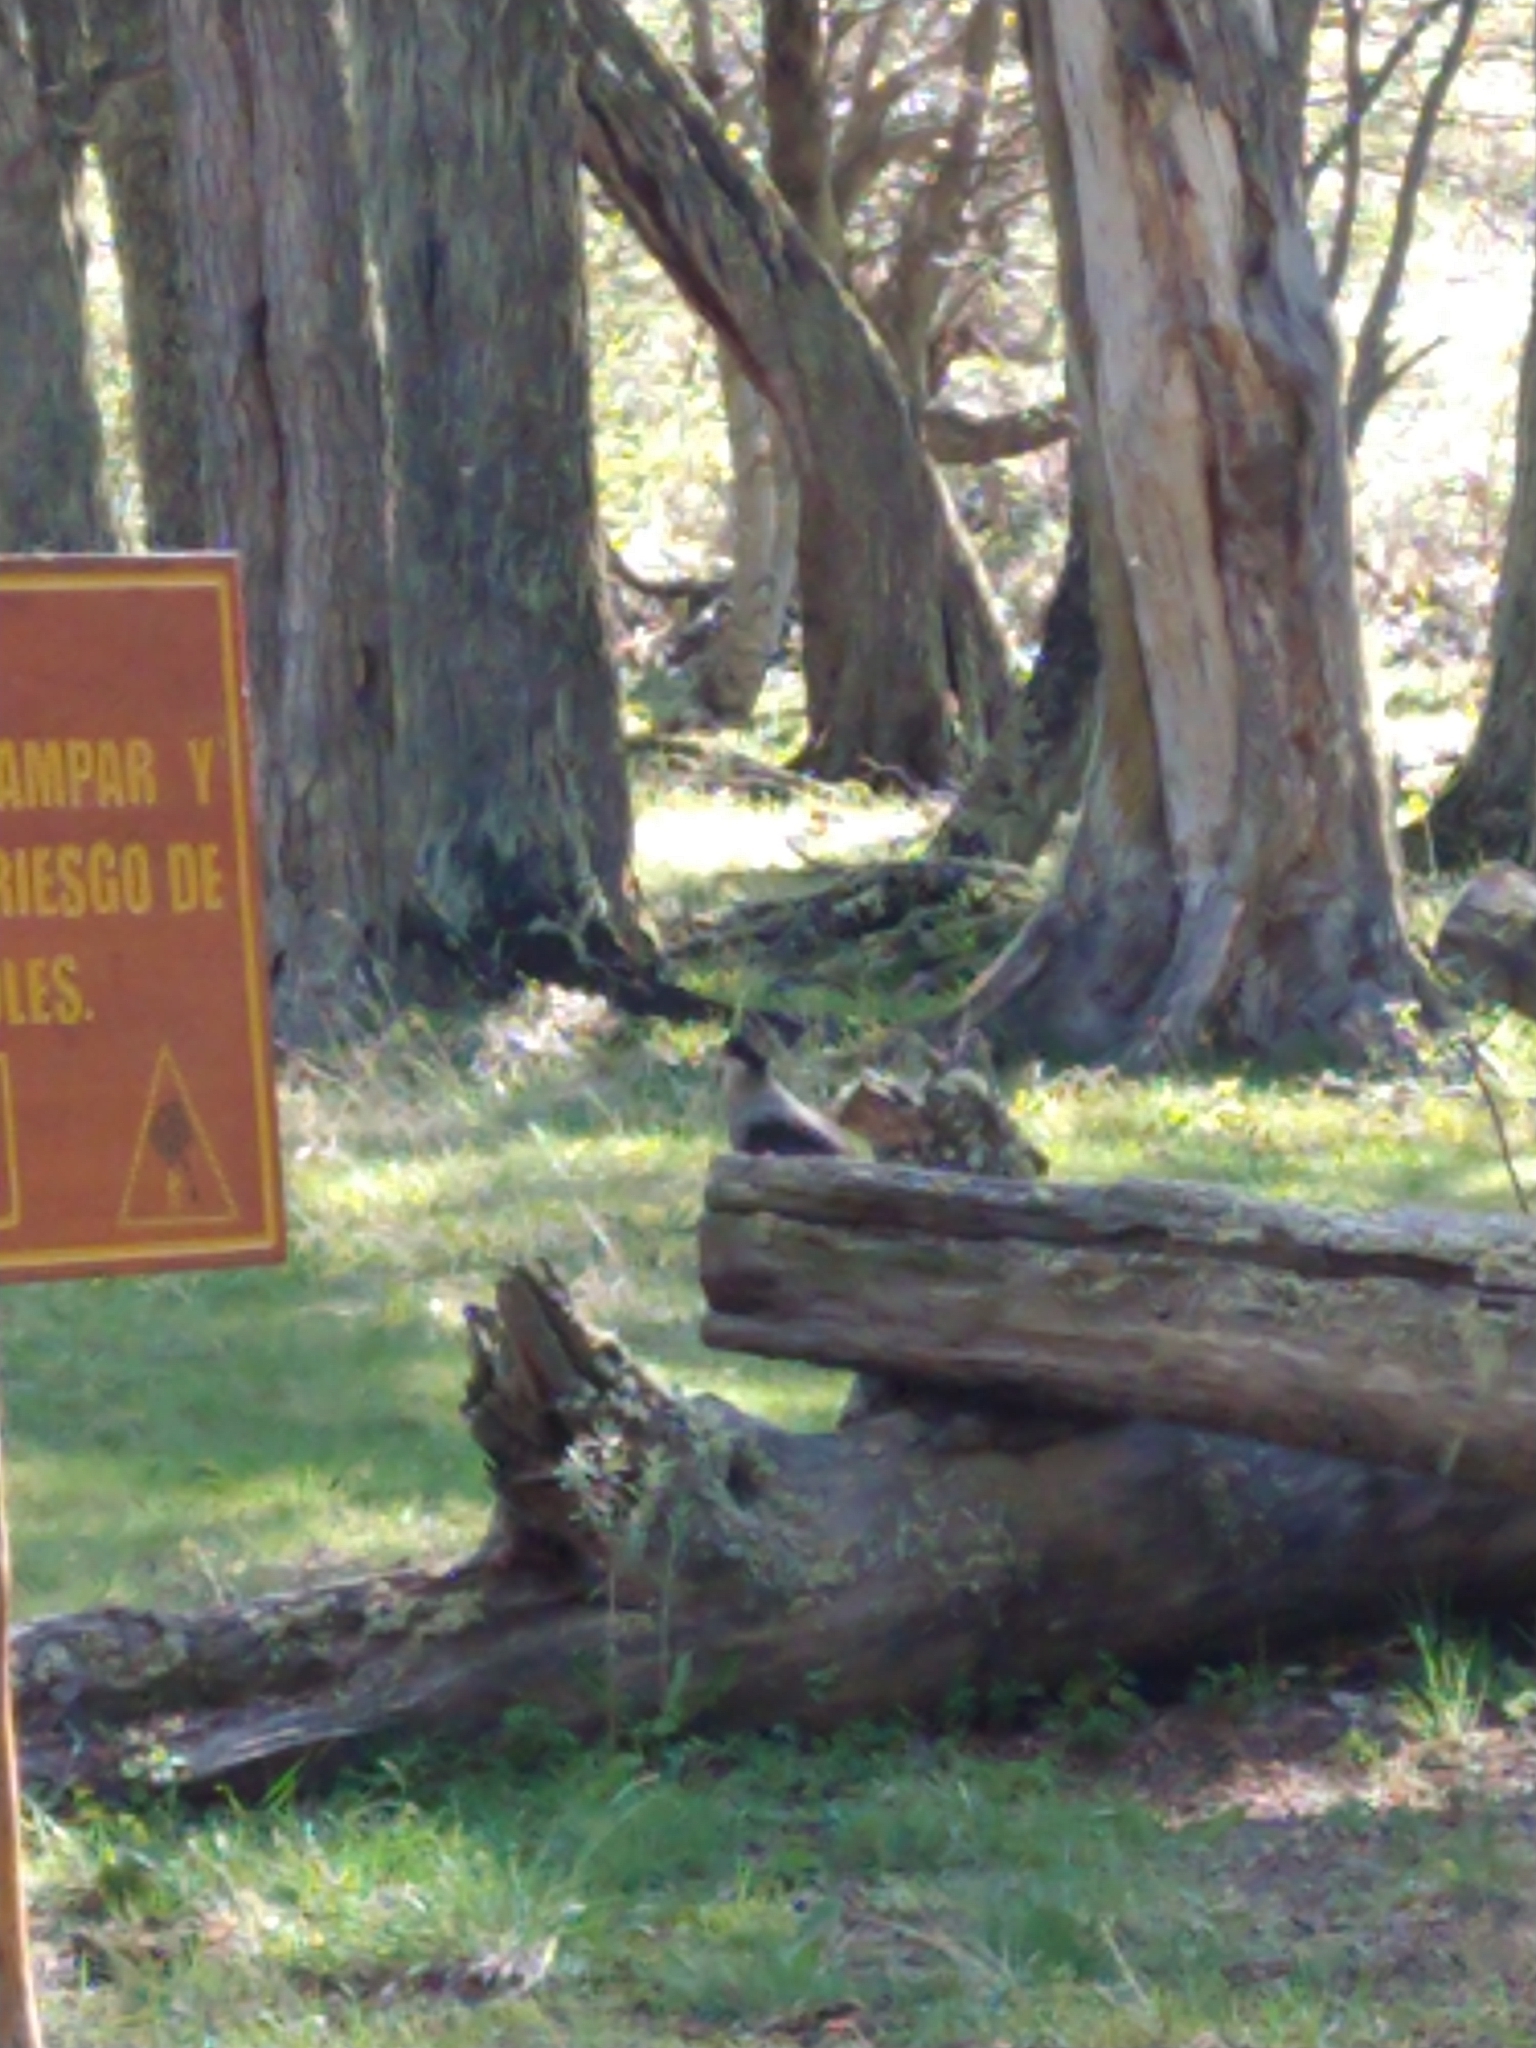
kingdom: Animalia
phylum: Chordata
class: Aves
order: Falconiformes
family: Falconidae
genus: Caracara
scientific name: Caracara plancus
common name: Southern caracara
